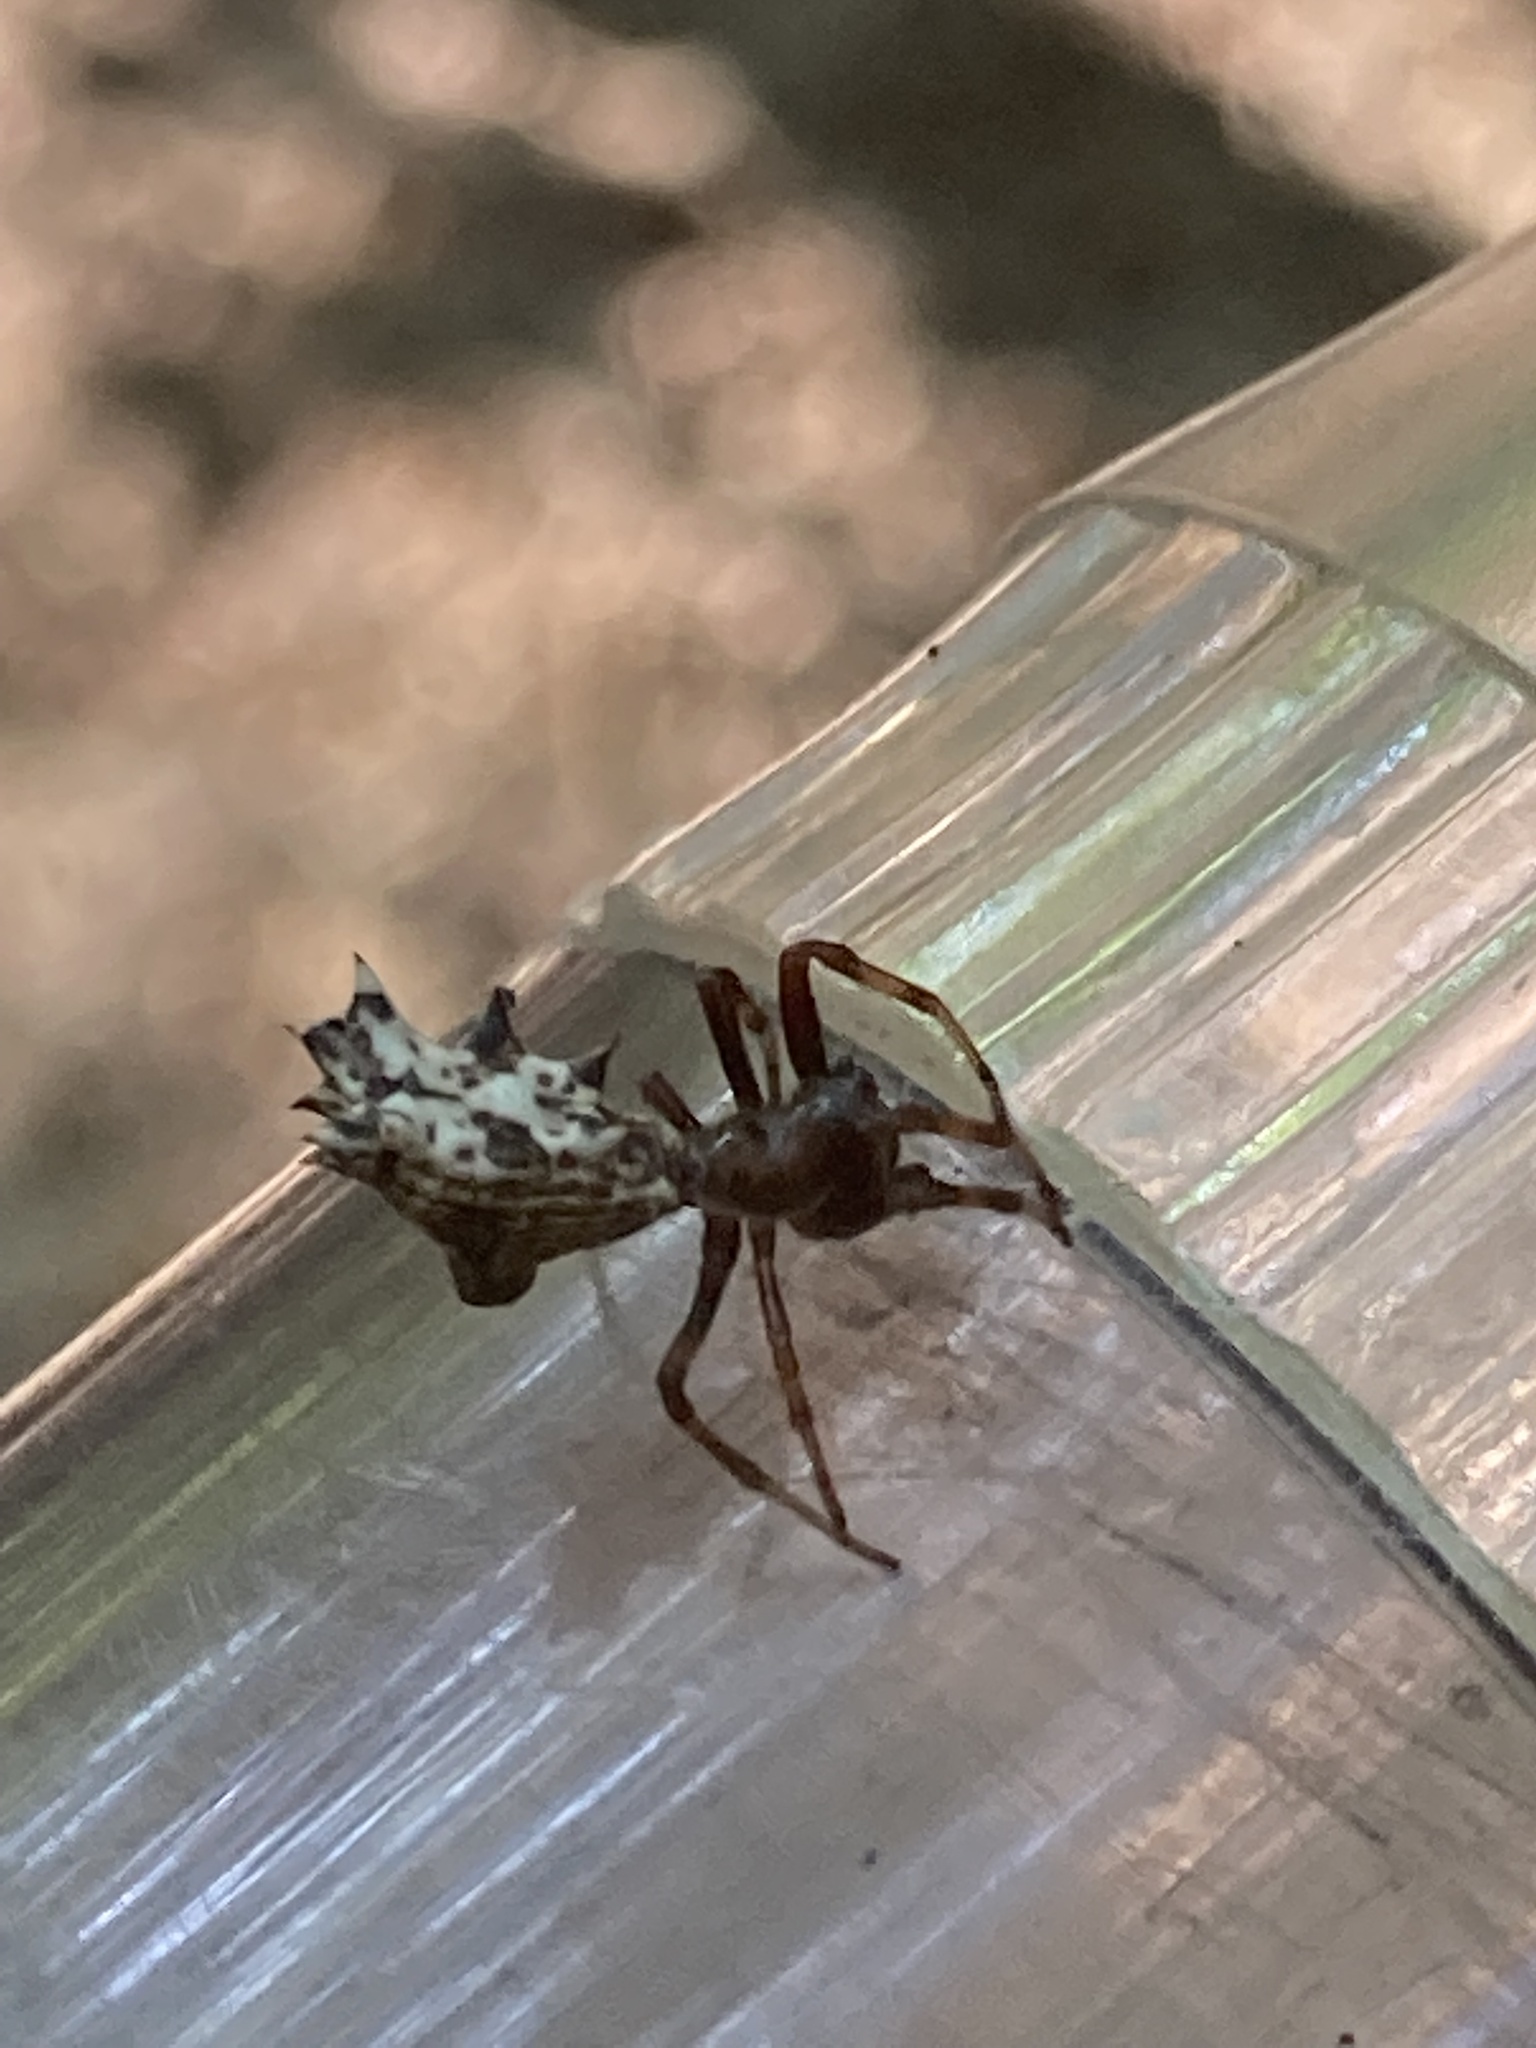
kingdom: Animalia
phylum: Arthropoda
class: Arachnida
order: Araneae
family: Araneidae
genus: Micrathena
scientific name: Micrathena gracilis
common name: Orb weavers
